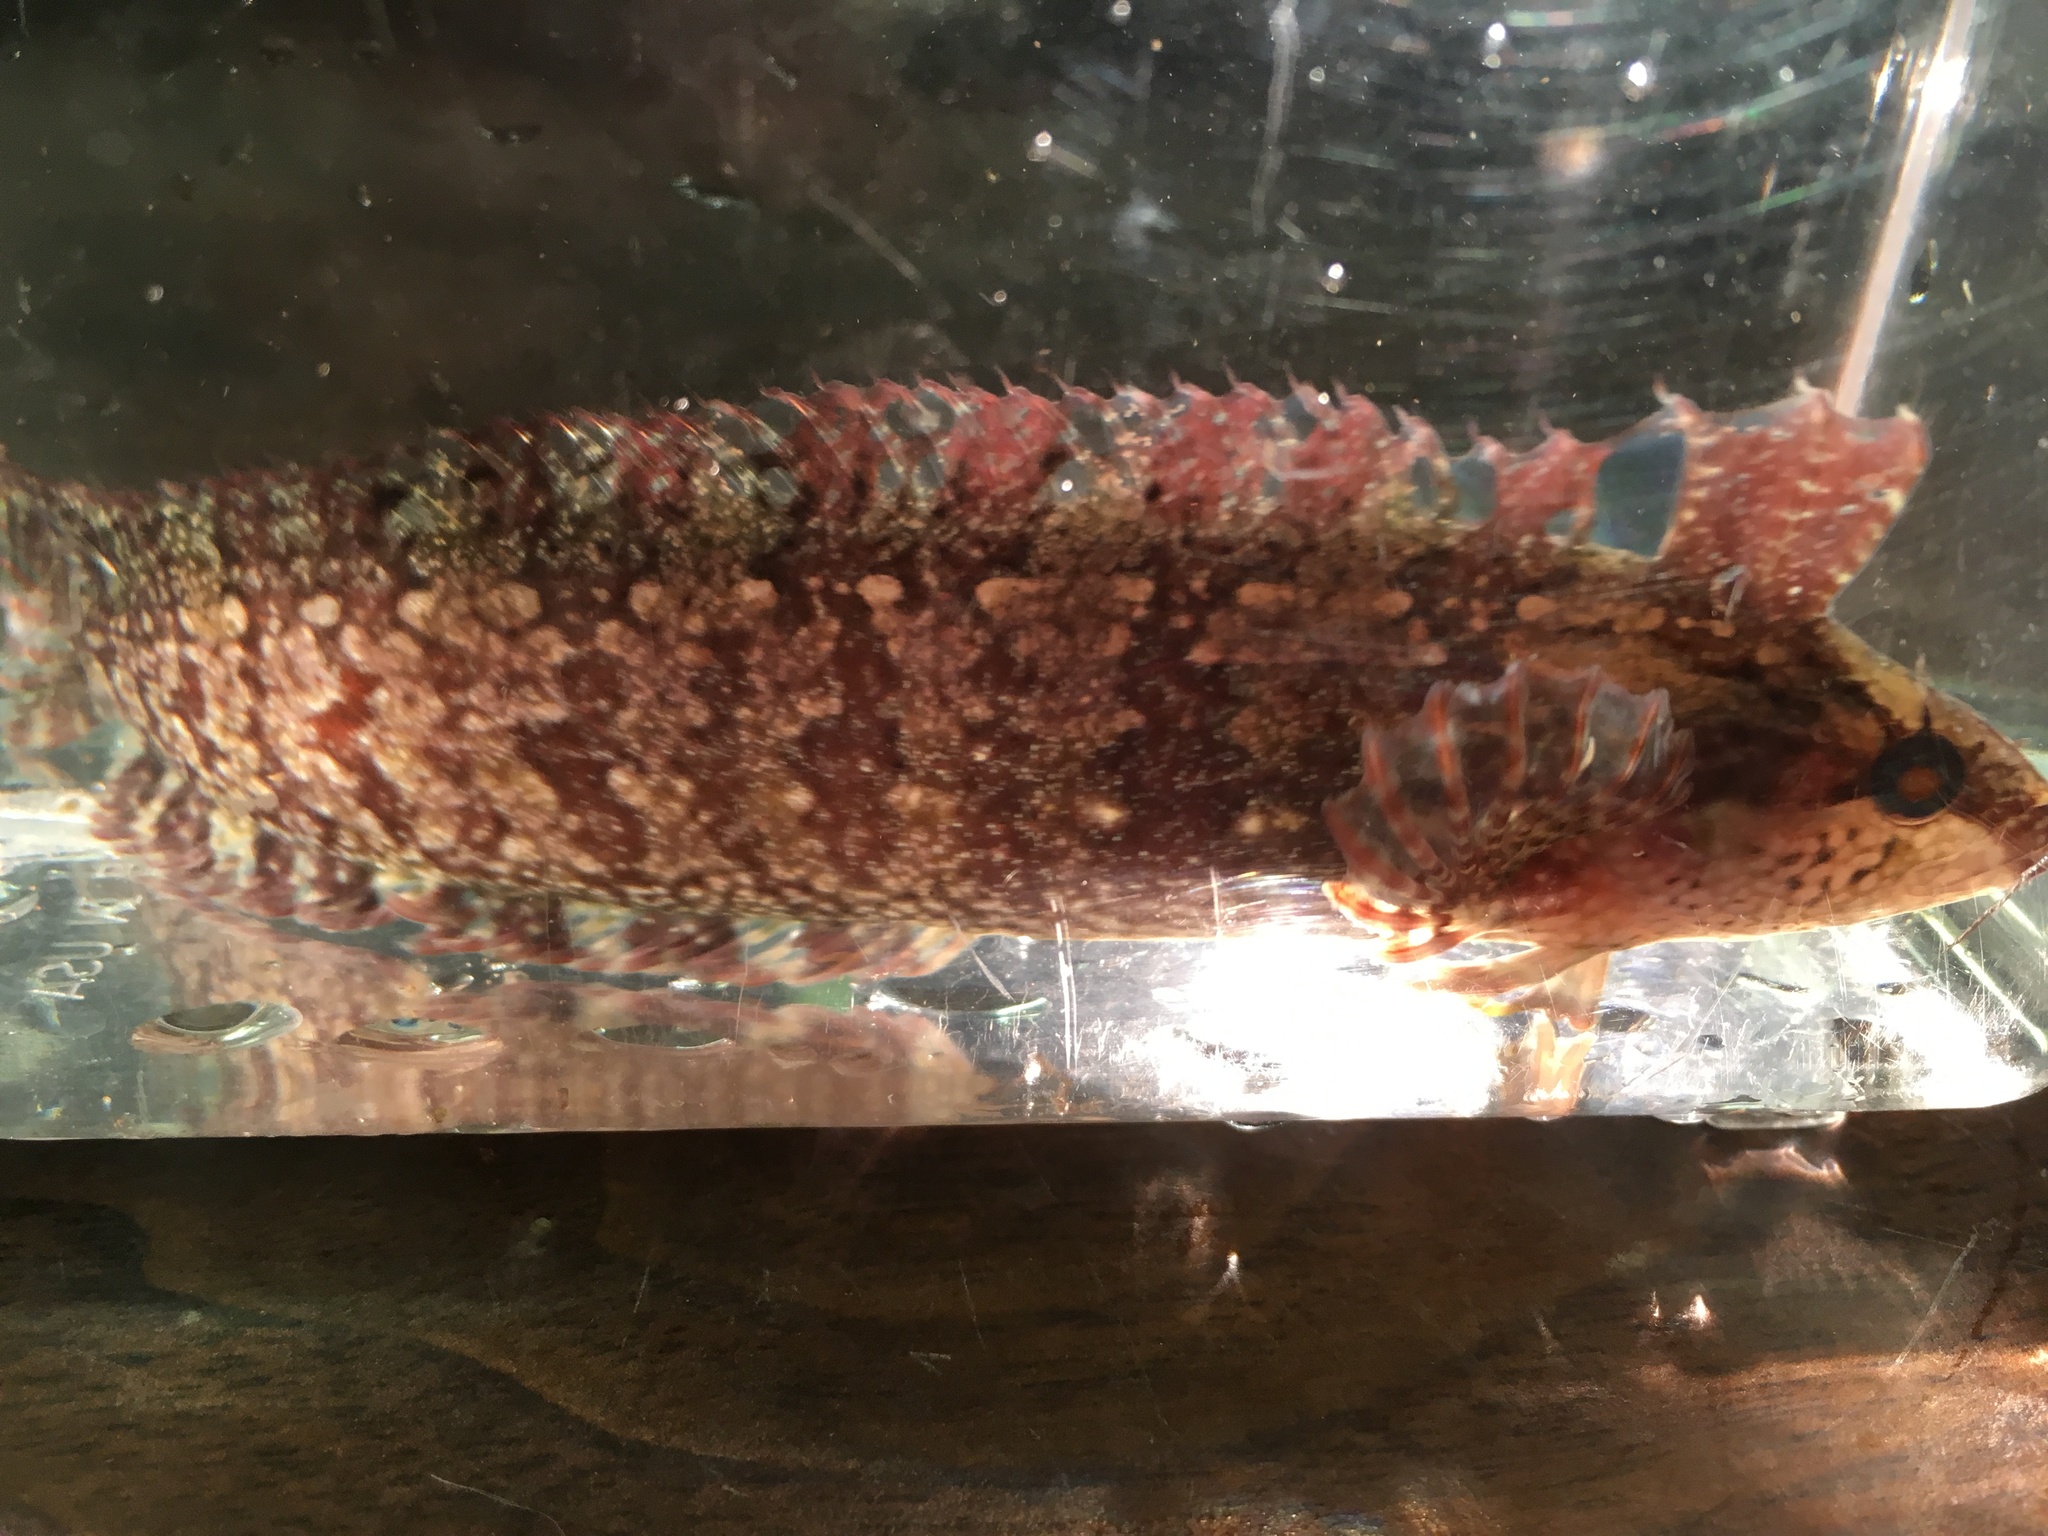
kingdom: Animalia
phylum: Chordata
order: Perciformes
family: Clinidae
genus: Gibbonsia
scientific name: Gibbonsia metzi
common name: Striped kelpfish
